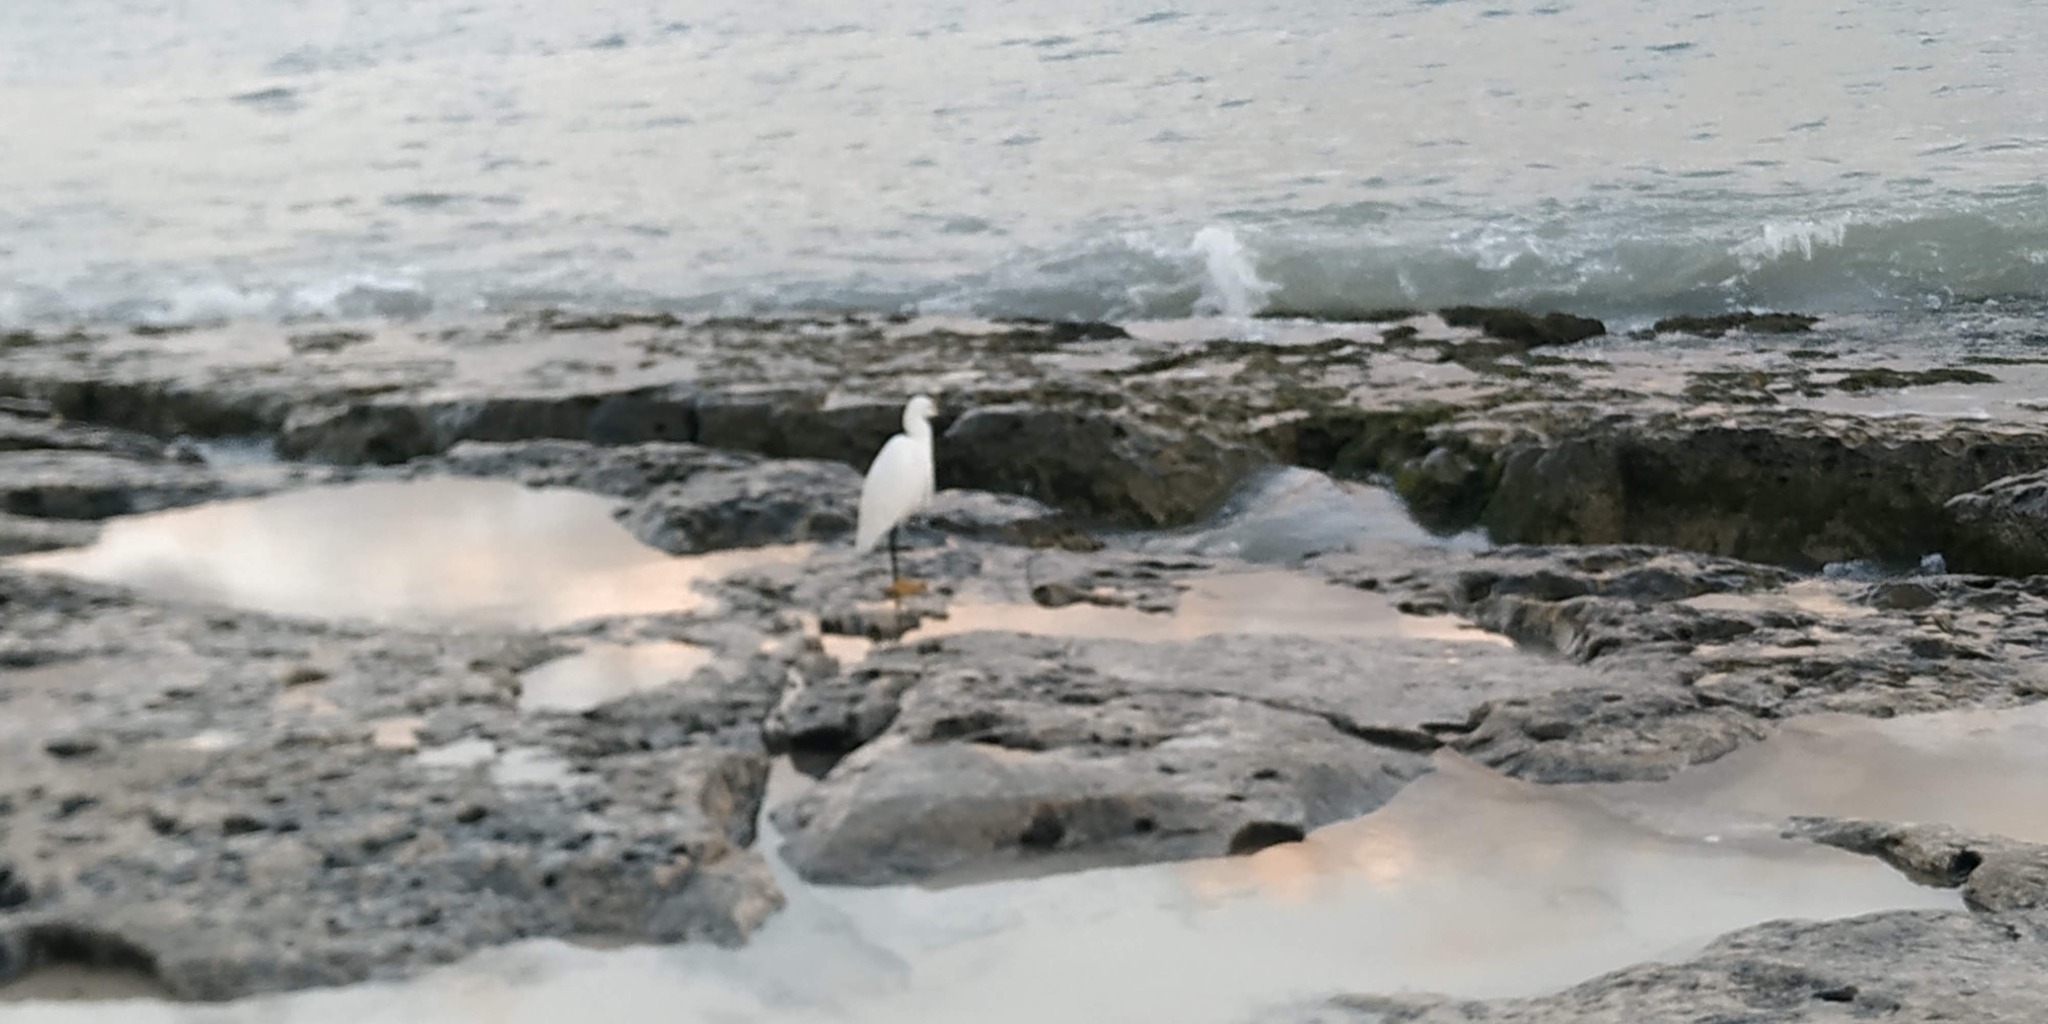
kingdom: Animalia
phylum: Chordata
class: Aves
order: Pelecaniformes
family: Ardeidae
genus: Egretta
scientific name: Egretta thula
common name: Snowy egret
